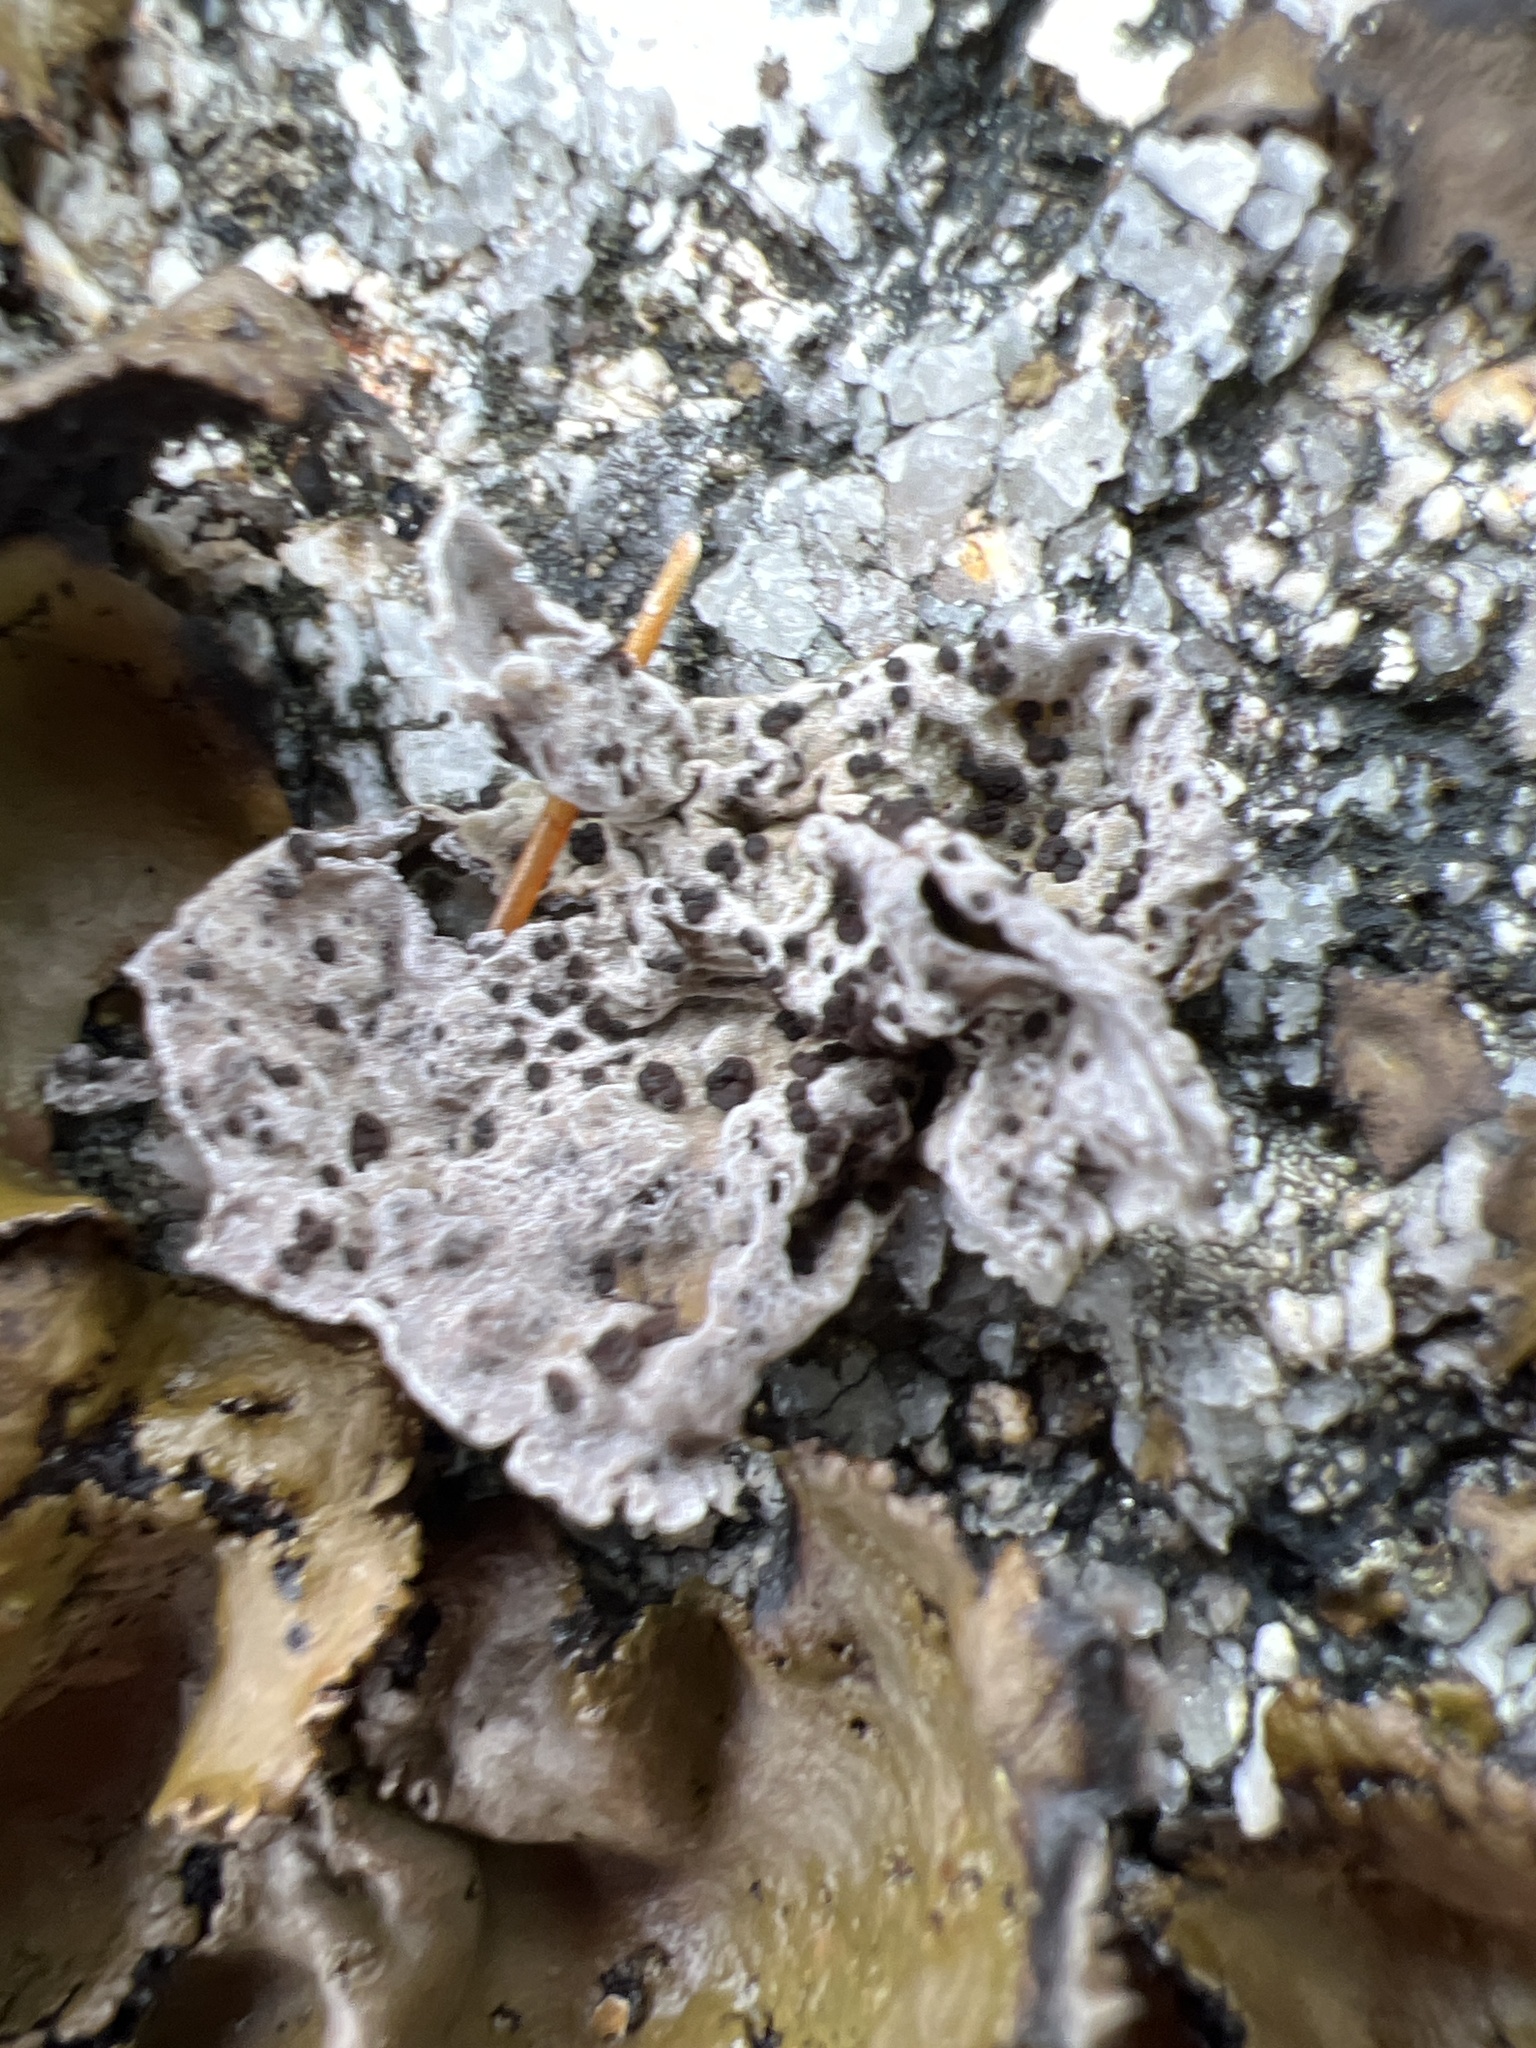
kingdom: Fungi
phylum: Ascomycota
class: Lecanoromycetes
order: Umbilicariales
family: Umbilicariaceae
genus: Lasallia
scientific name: Lasallia papulosa
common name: Common toadskin lichen
